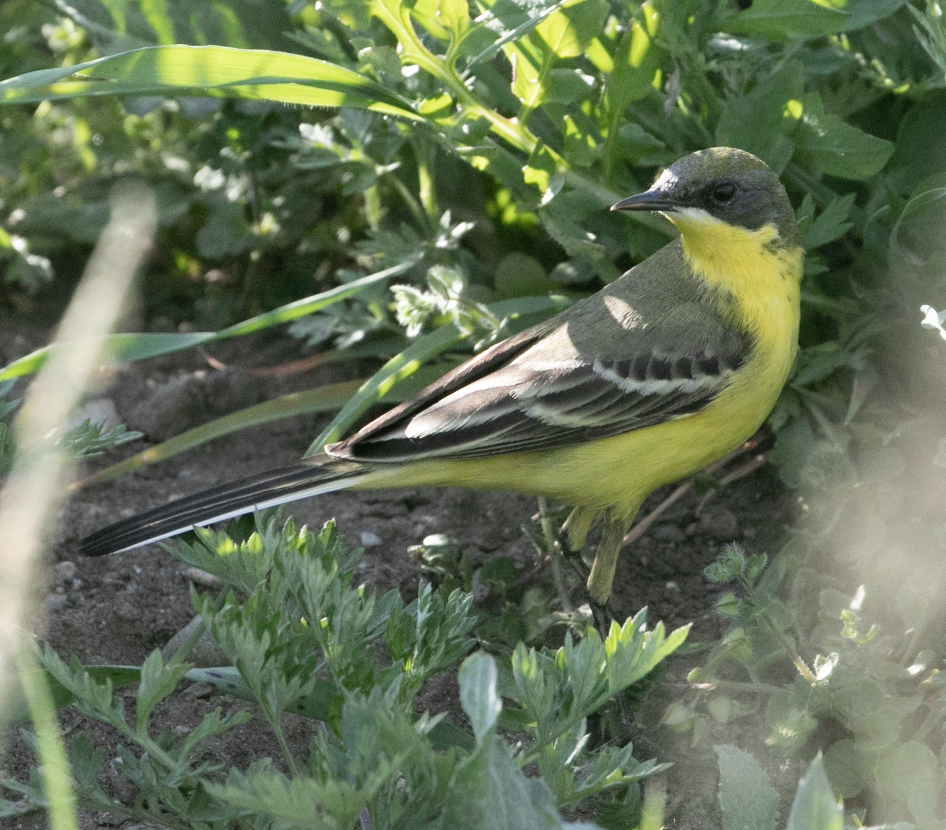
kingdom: Animalia
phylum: Chordata
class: Aves
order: Passeriformes
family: Motacillidae
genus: Motacilla
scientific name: Motacilla flava
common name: Western yellow wagtail
